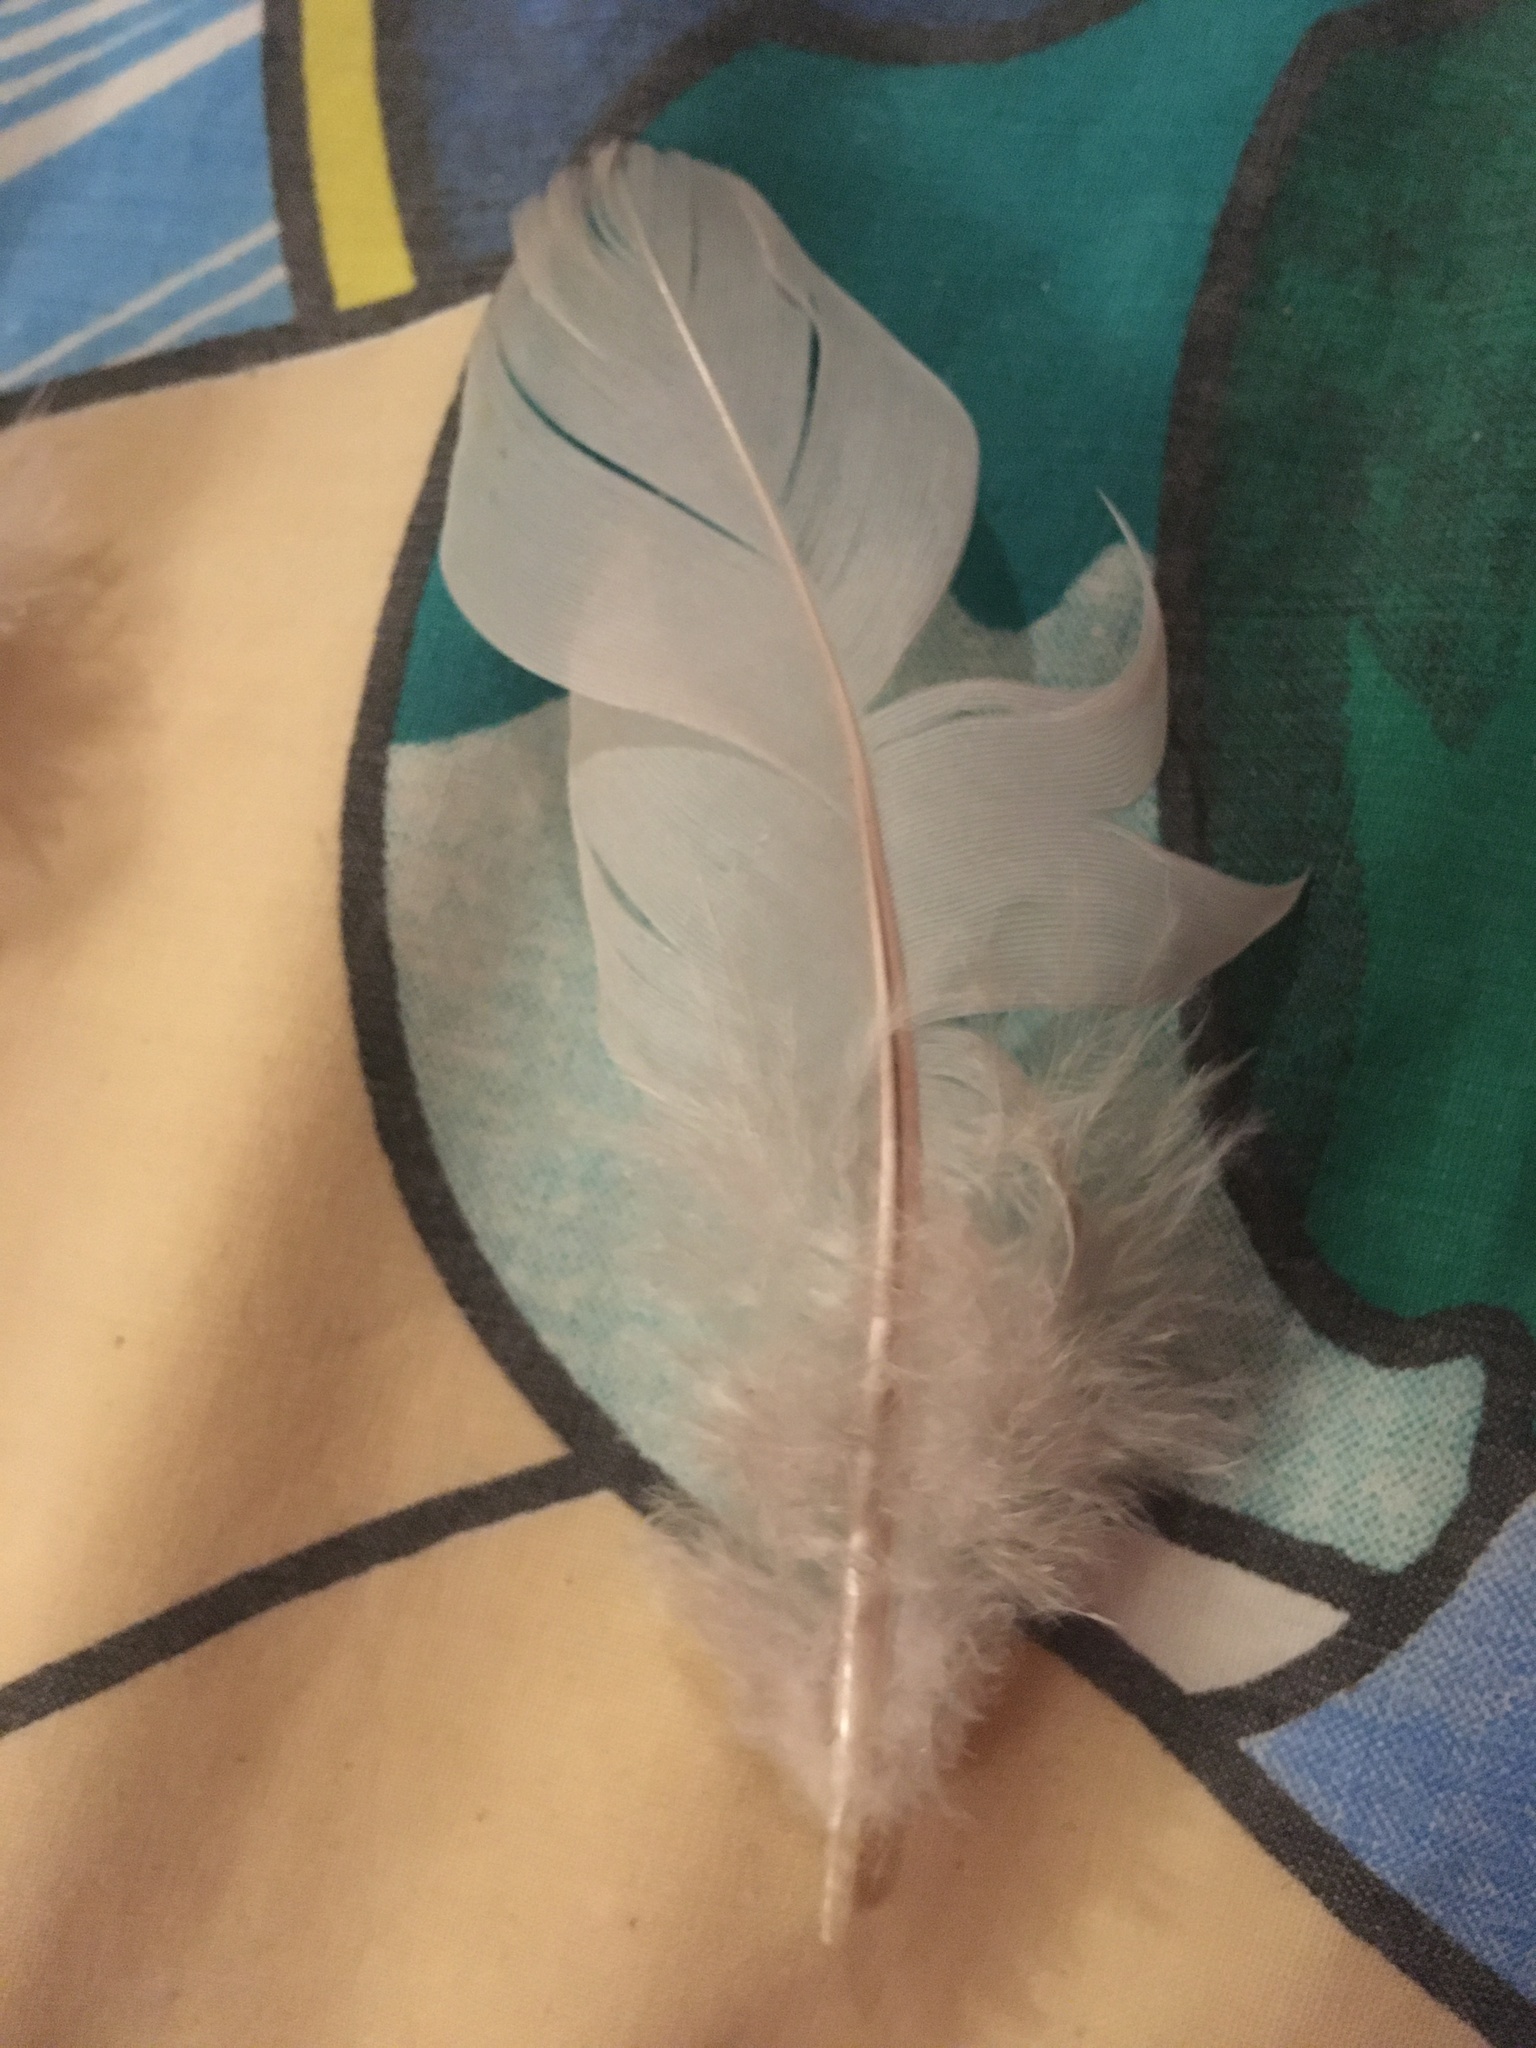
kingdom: Animalia
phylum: Chordata
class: Aves
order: Columbiformes
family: Columbidae
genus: Columba
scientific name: Columba palumbus
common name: Common wood pigeon
